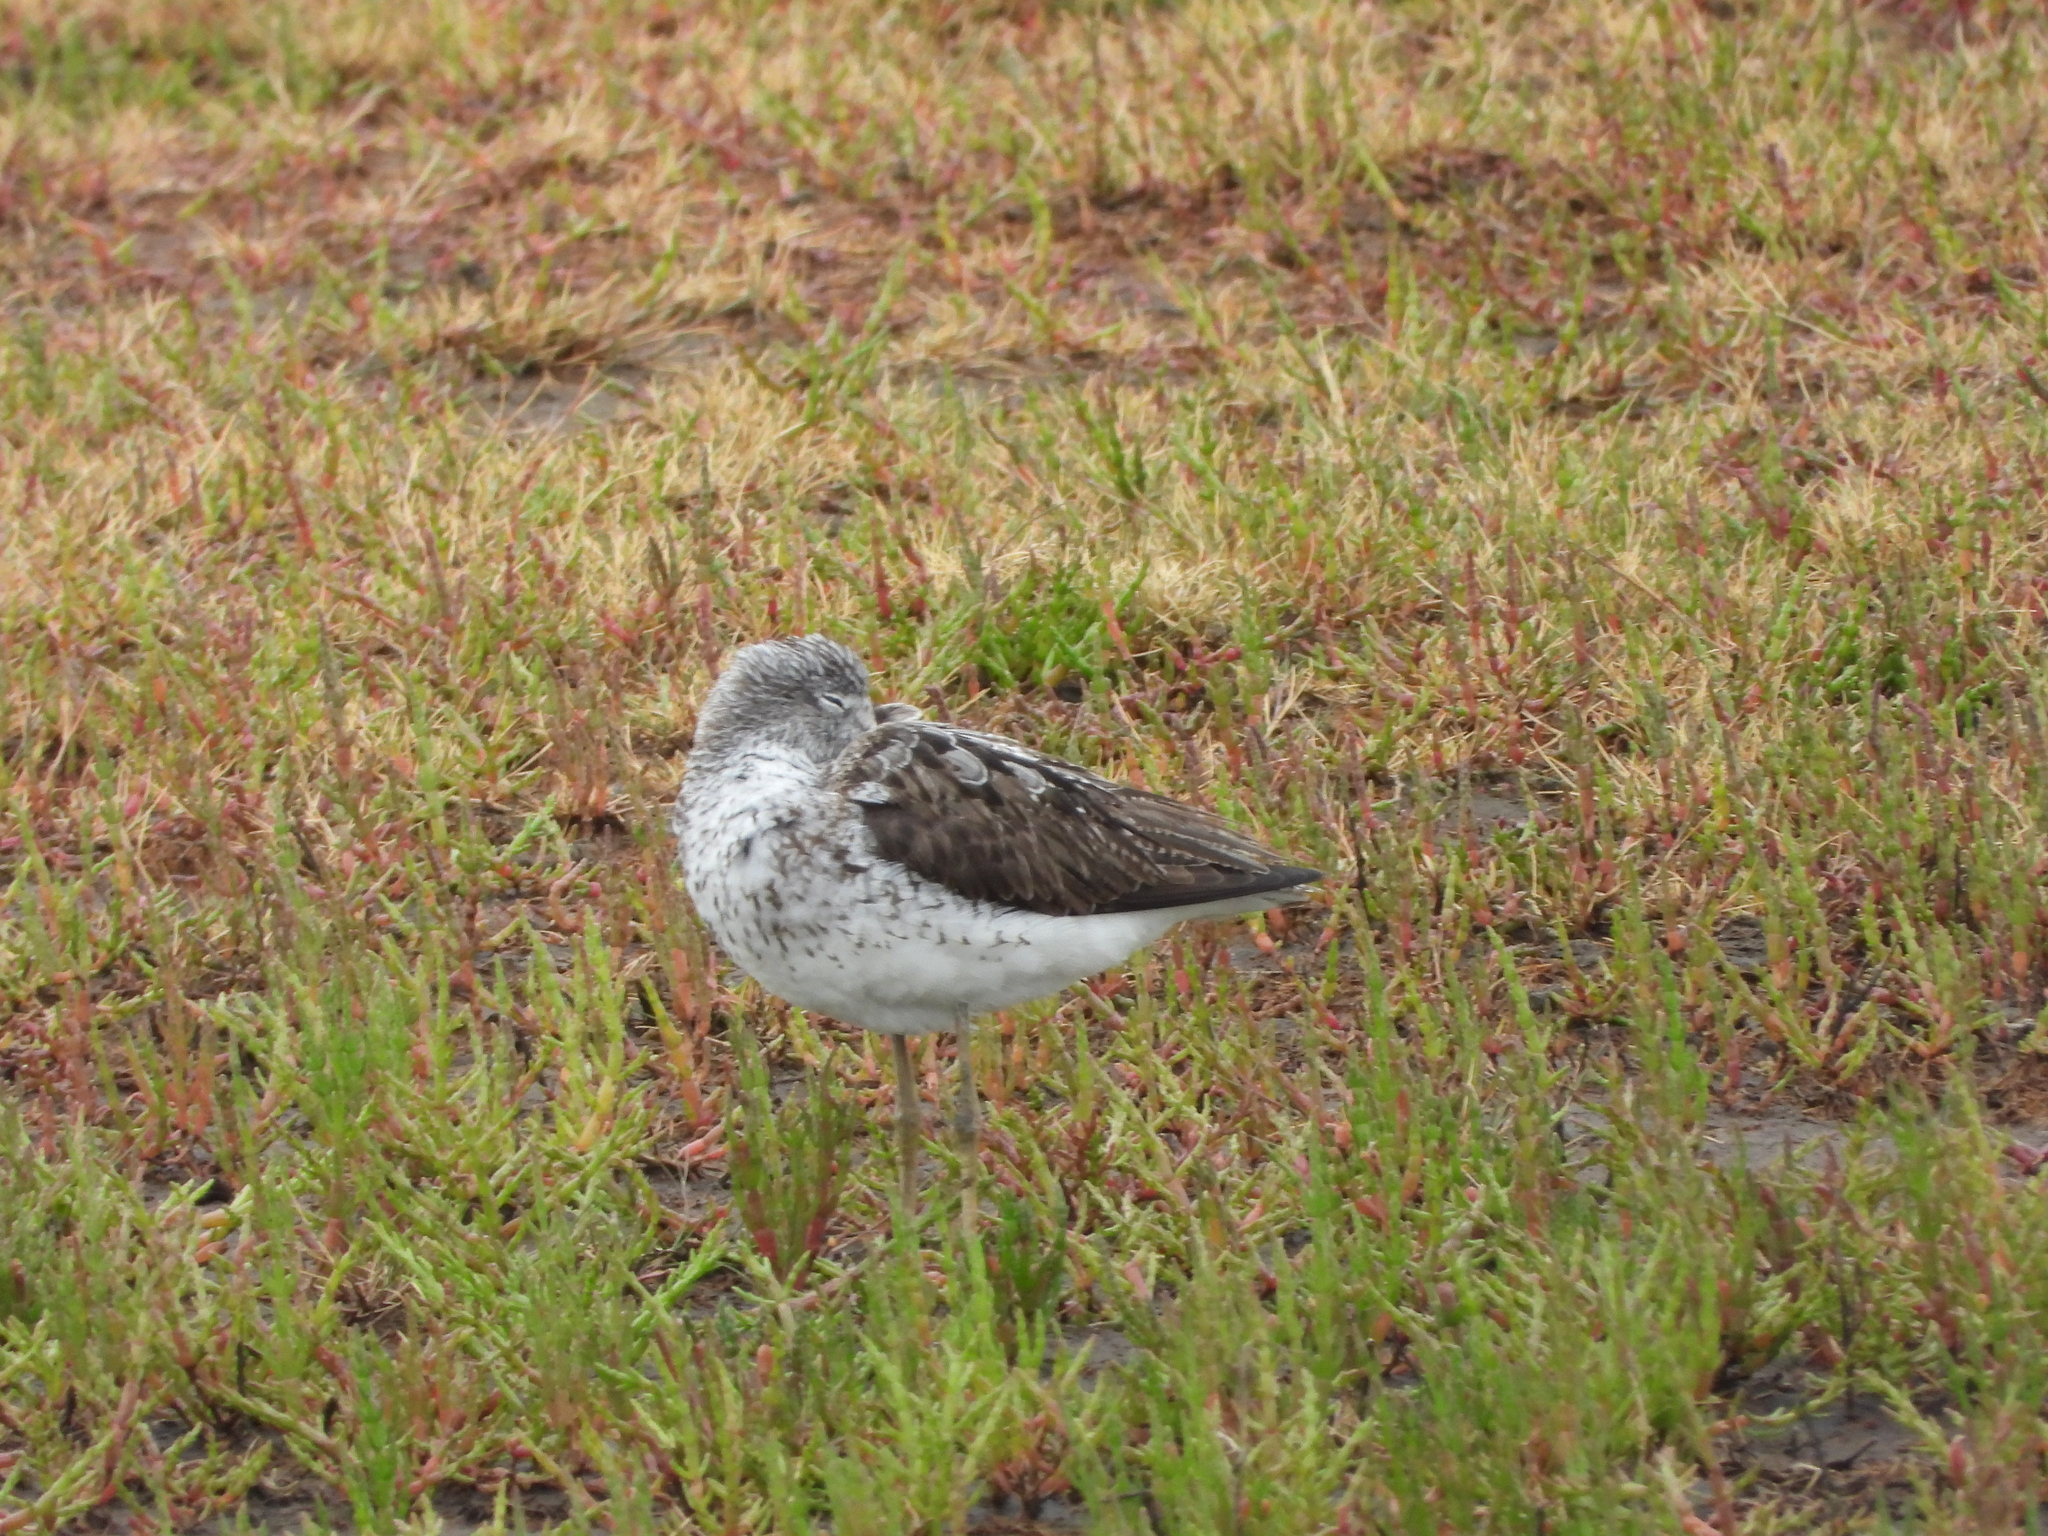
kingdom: Animalia
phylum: Chordata
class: Aves
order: Charadriiformes
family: Scolopacidae
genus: Tringa
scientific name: Tringa nebularia
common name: Common greenshank
